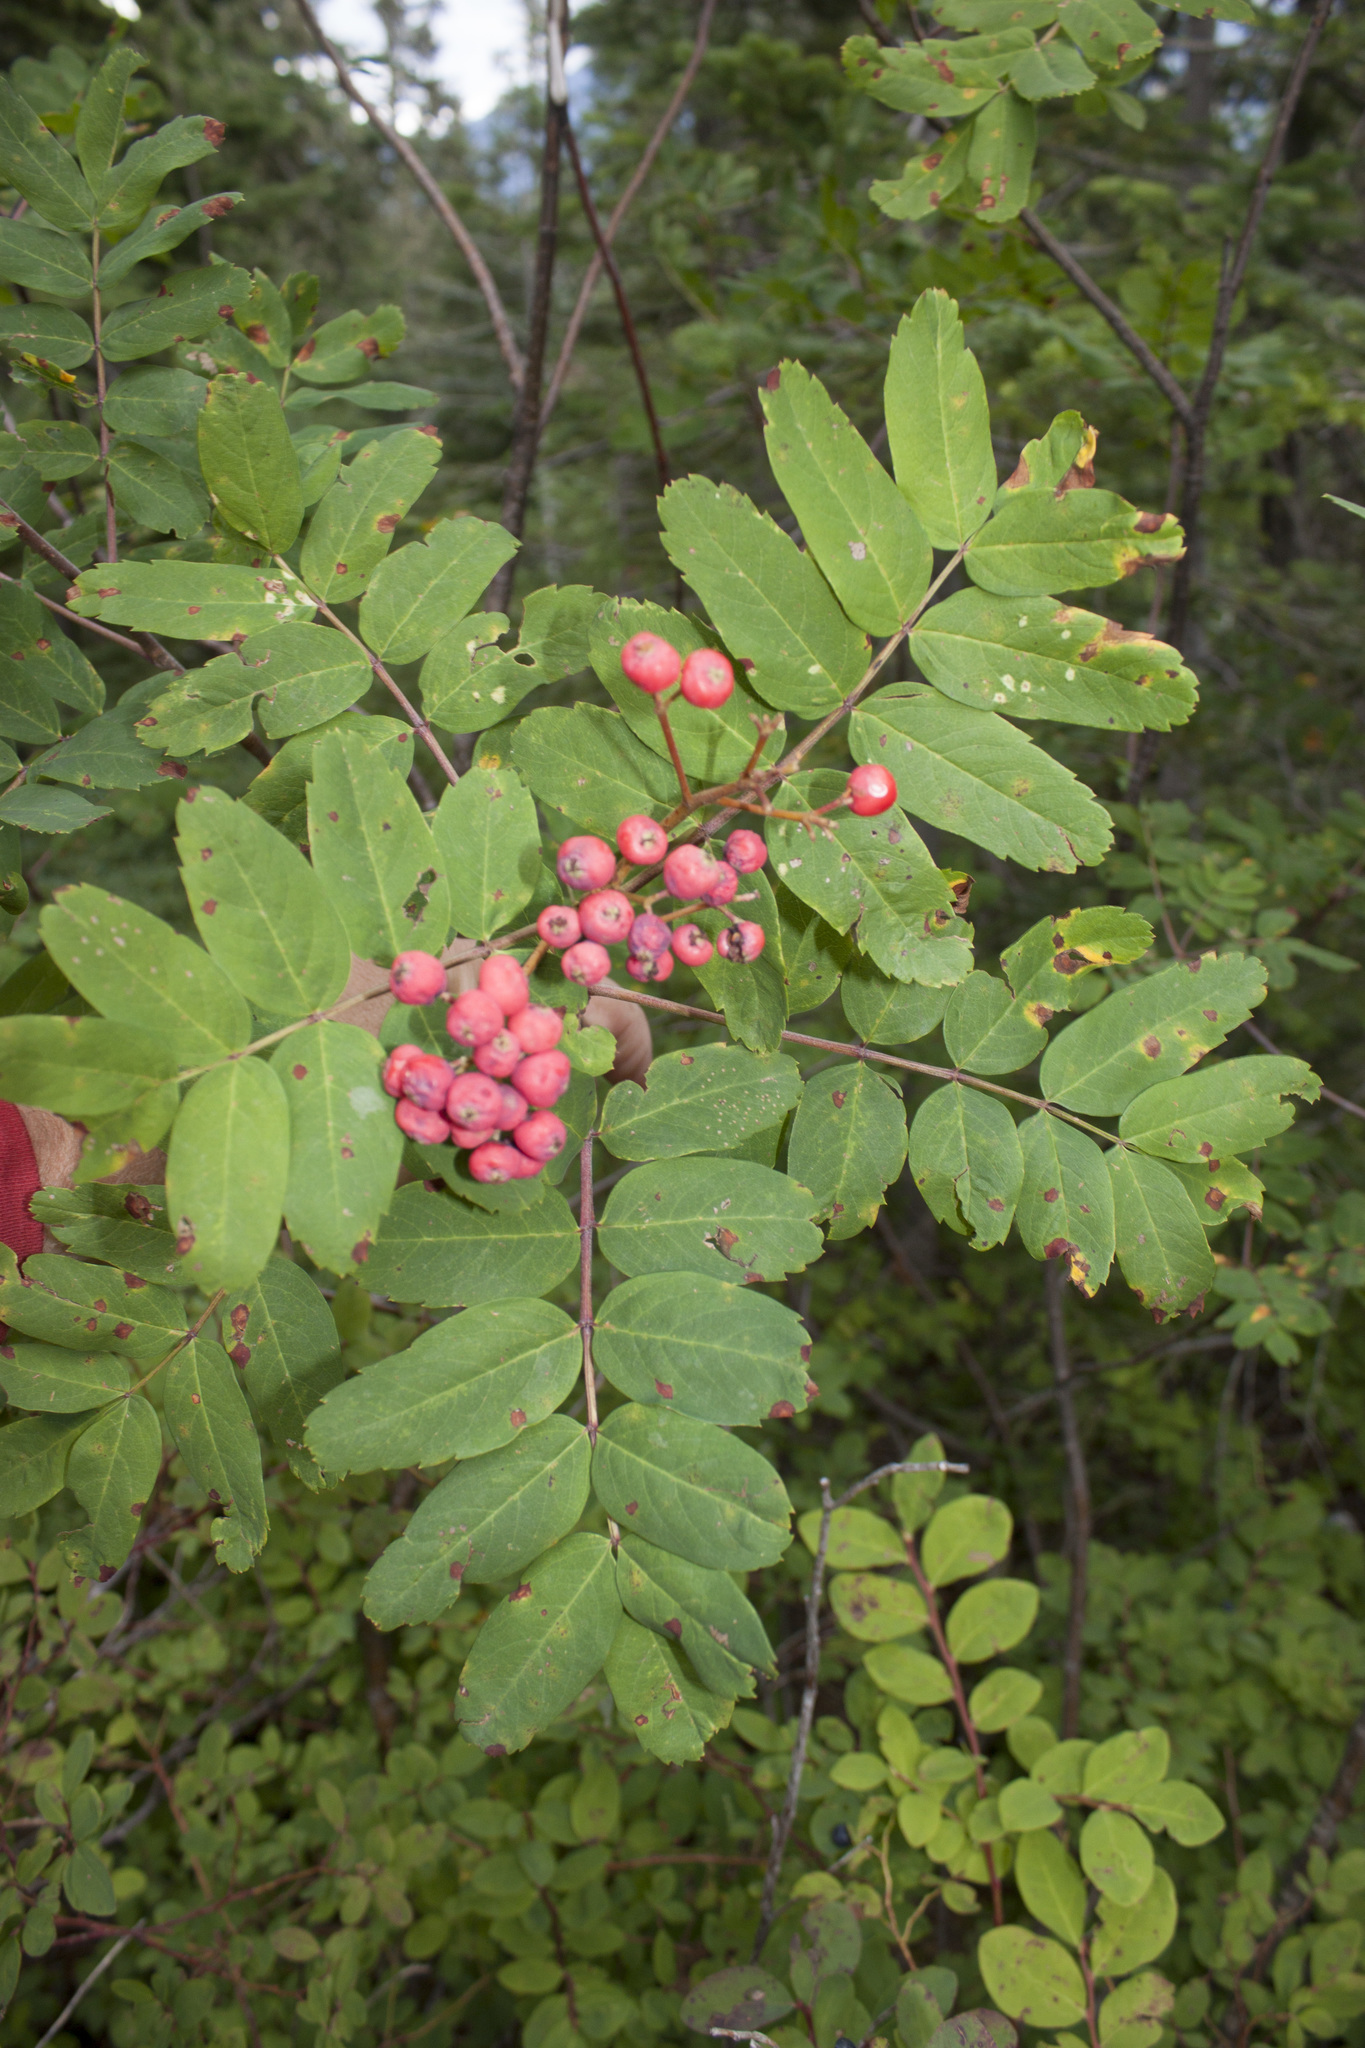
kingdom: Plantae
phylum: Tracheophyta
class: Magnoliopsida
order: Rosales
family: Rosaceae
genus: Sorbus
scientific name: Sorbus sitchensis
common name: Sitka mountain-ash
